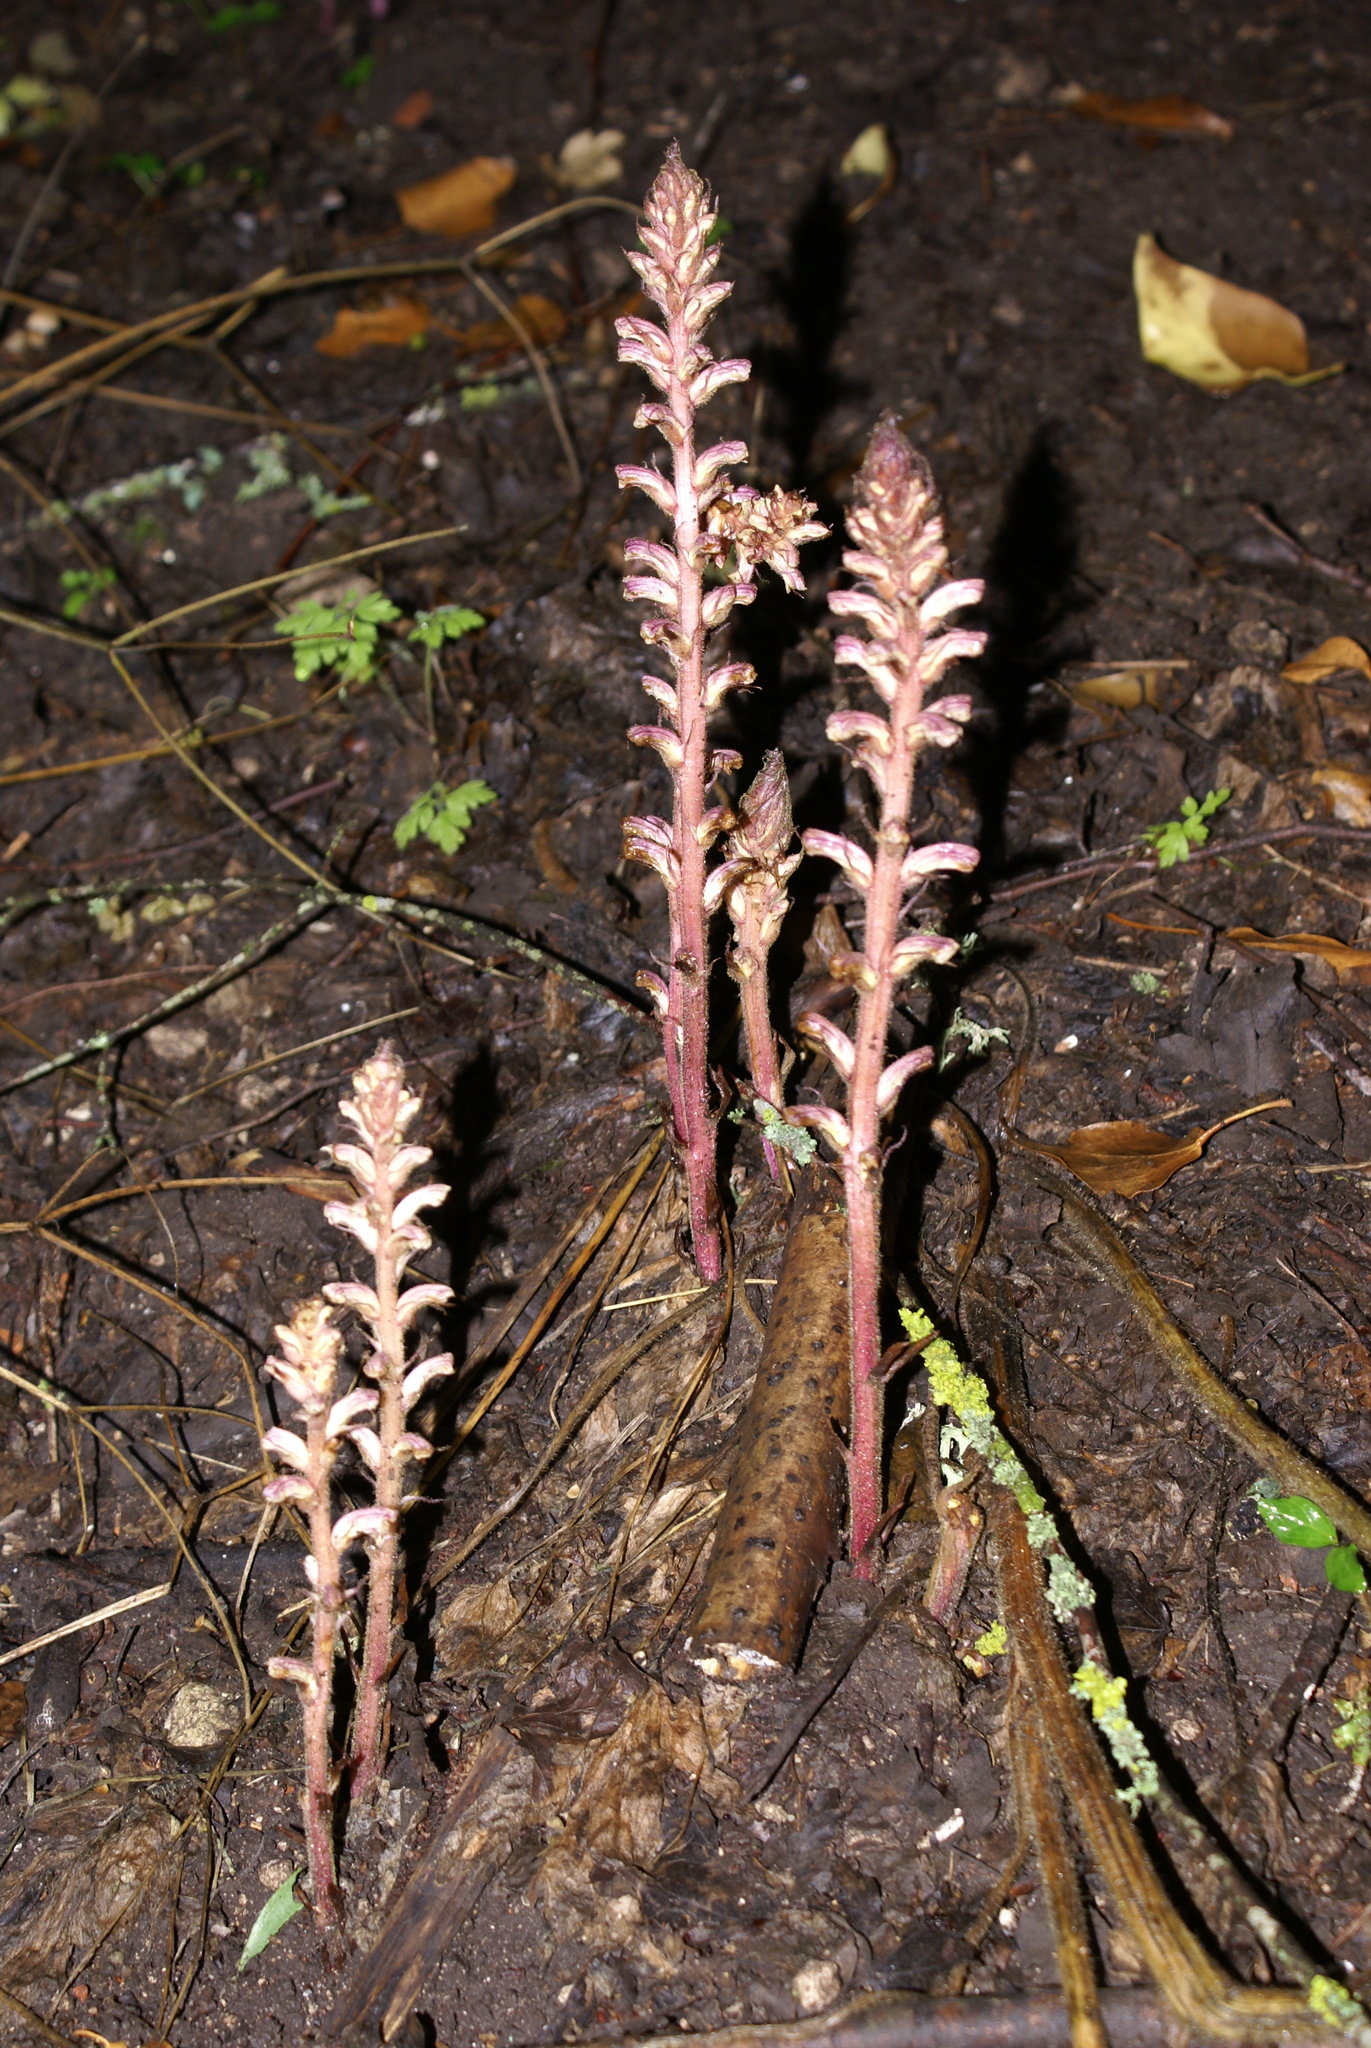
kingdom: Plantae
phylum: Tracheophyta
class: Magnoliopsida
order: Lamiales
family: Orobanchaceae
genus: Orobanche
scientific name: Orobanche hederae
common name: Ivy broomrape
